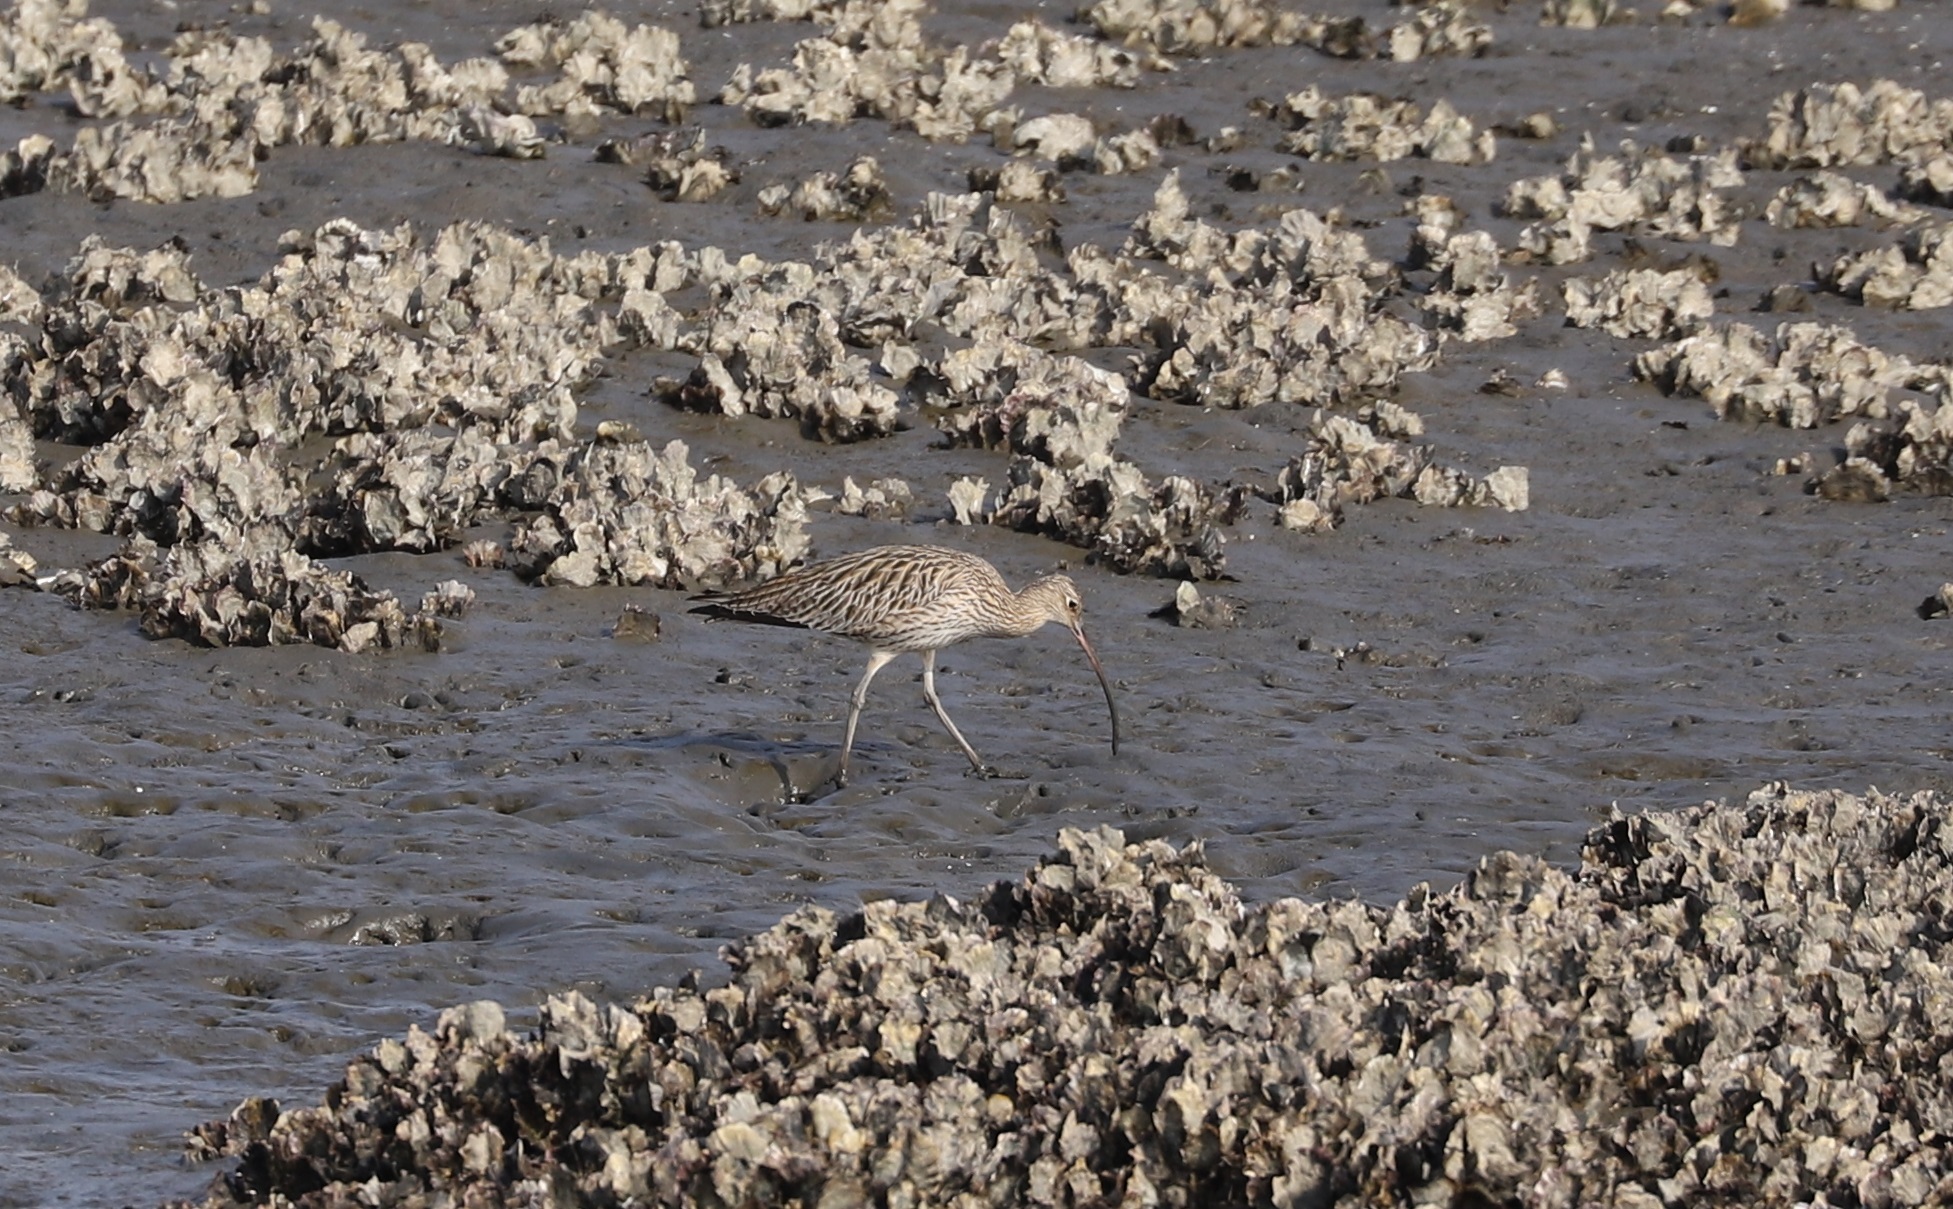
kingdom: Animalia
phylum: Chordata
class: Aves
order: Charadriiformes
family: Scolopacidae
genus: Numenius
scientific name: Numenius arquata
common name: Eurasian curlew
